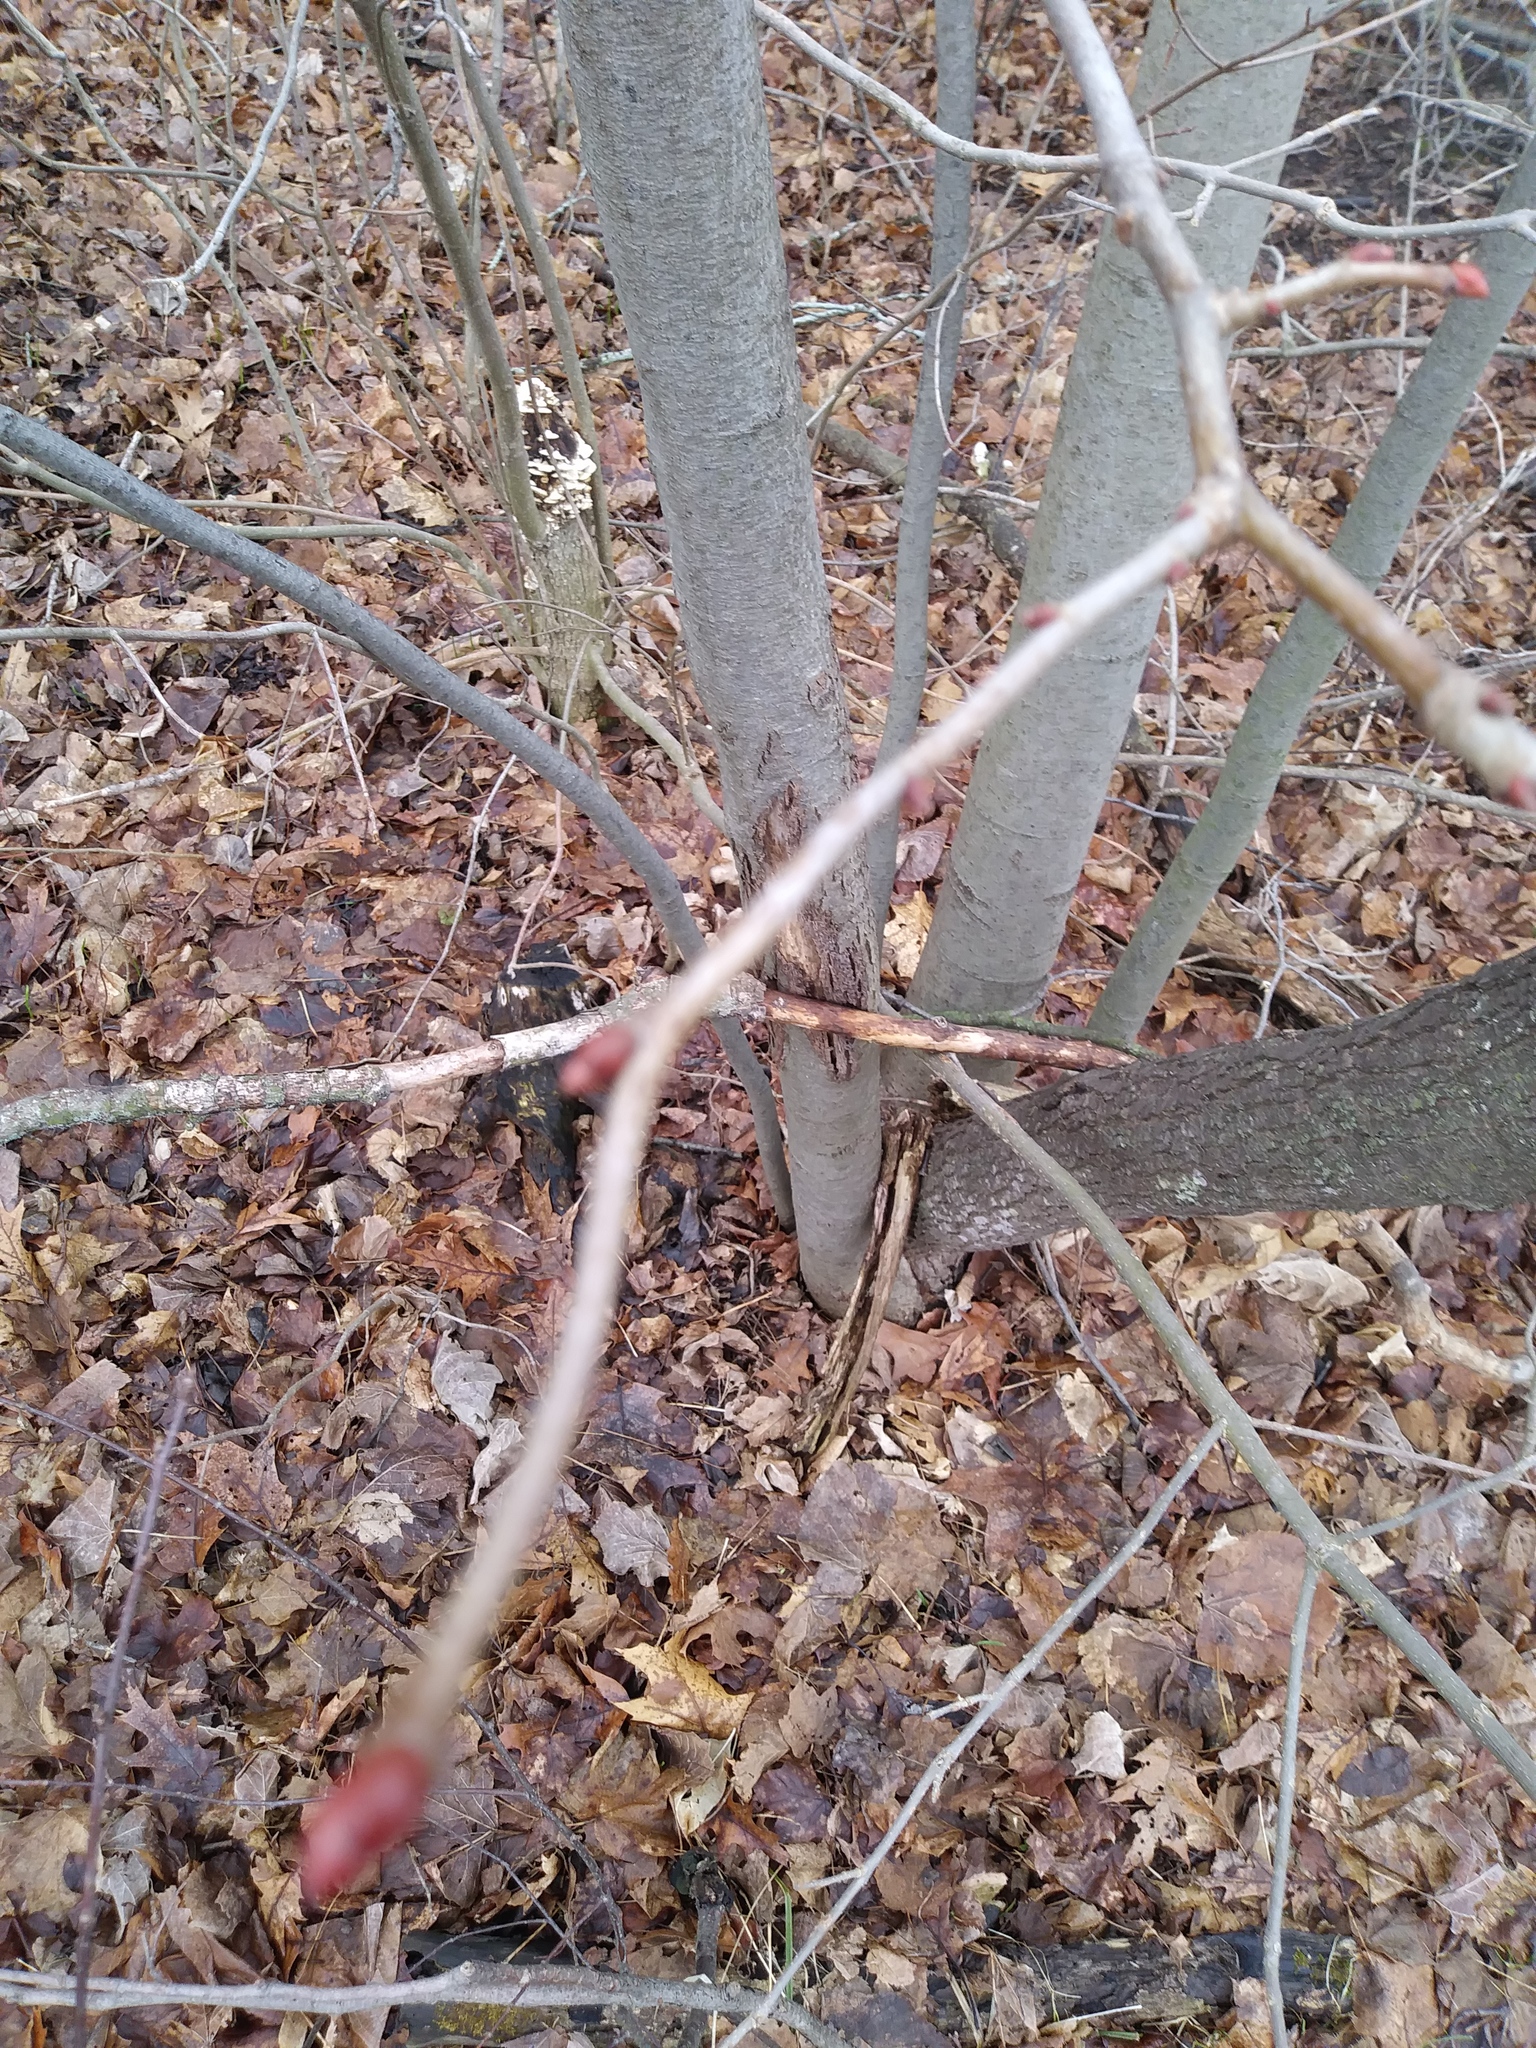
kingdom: Plantae
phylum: Tracheophyta
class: Magnoliopsida
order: Malvales
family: Malvaceae
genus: Tilia
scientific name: Tilia americana
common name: Basswood
